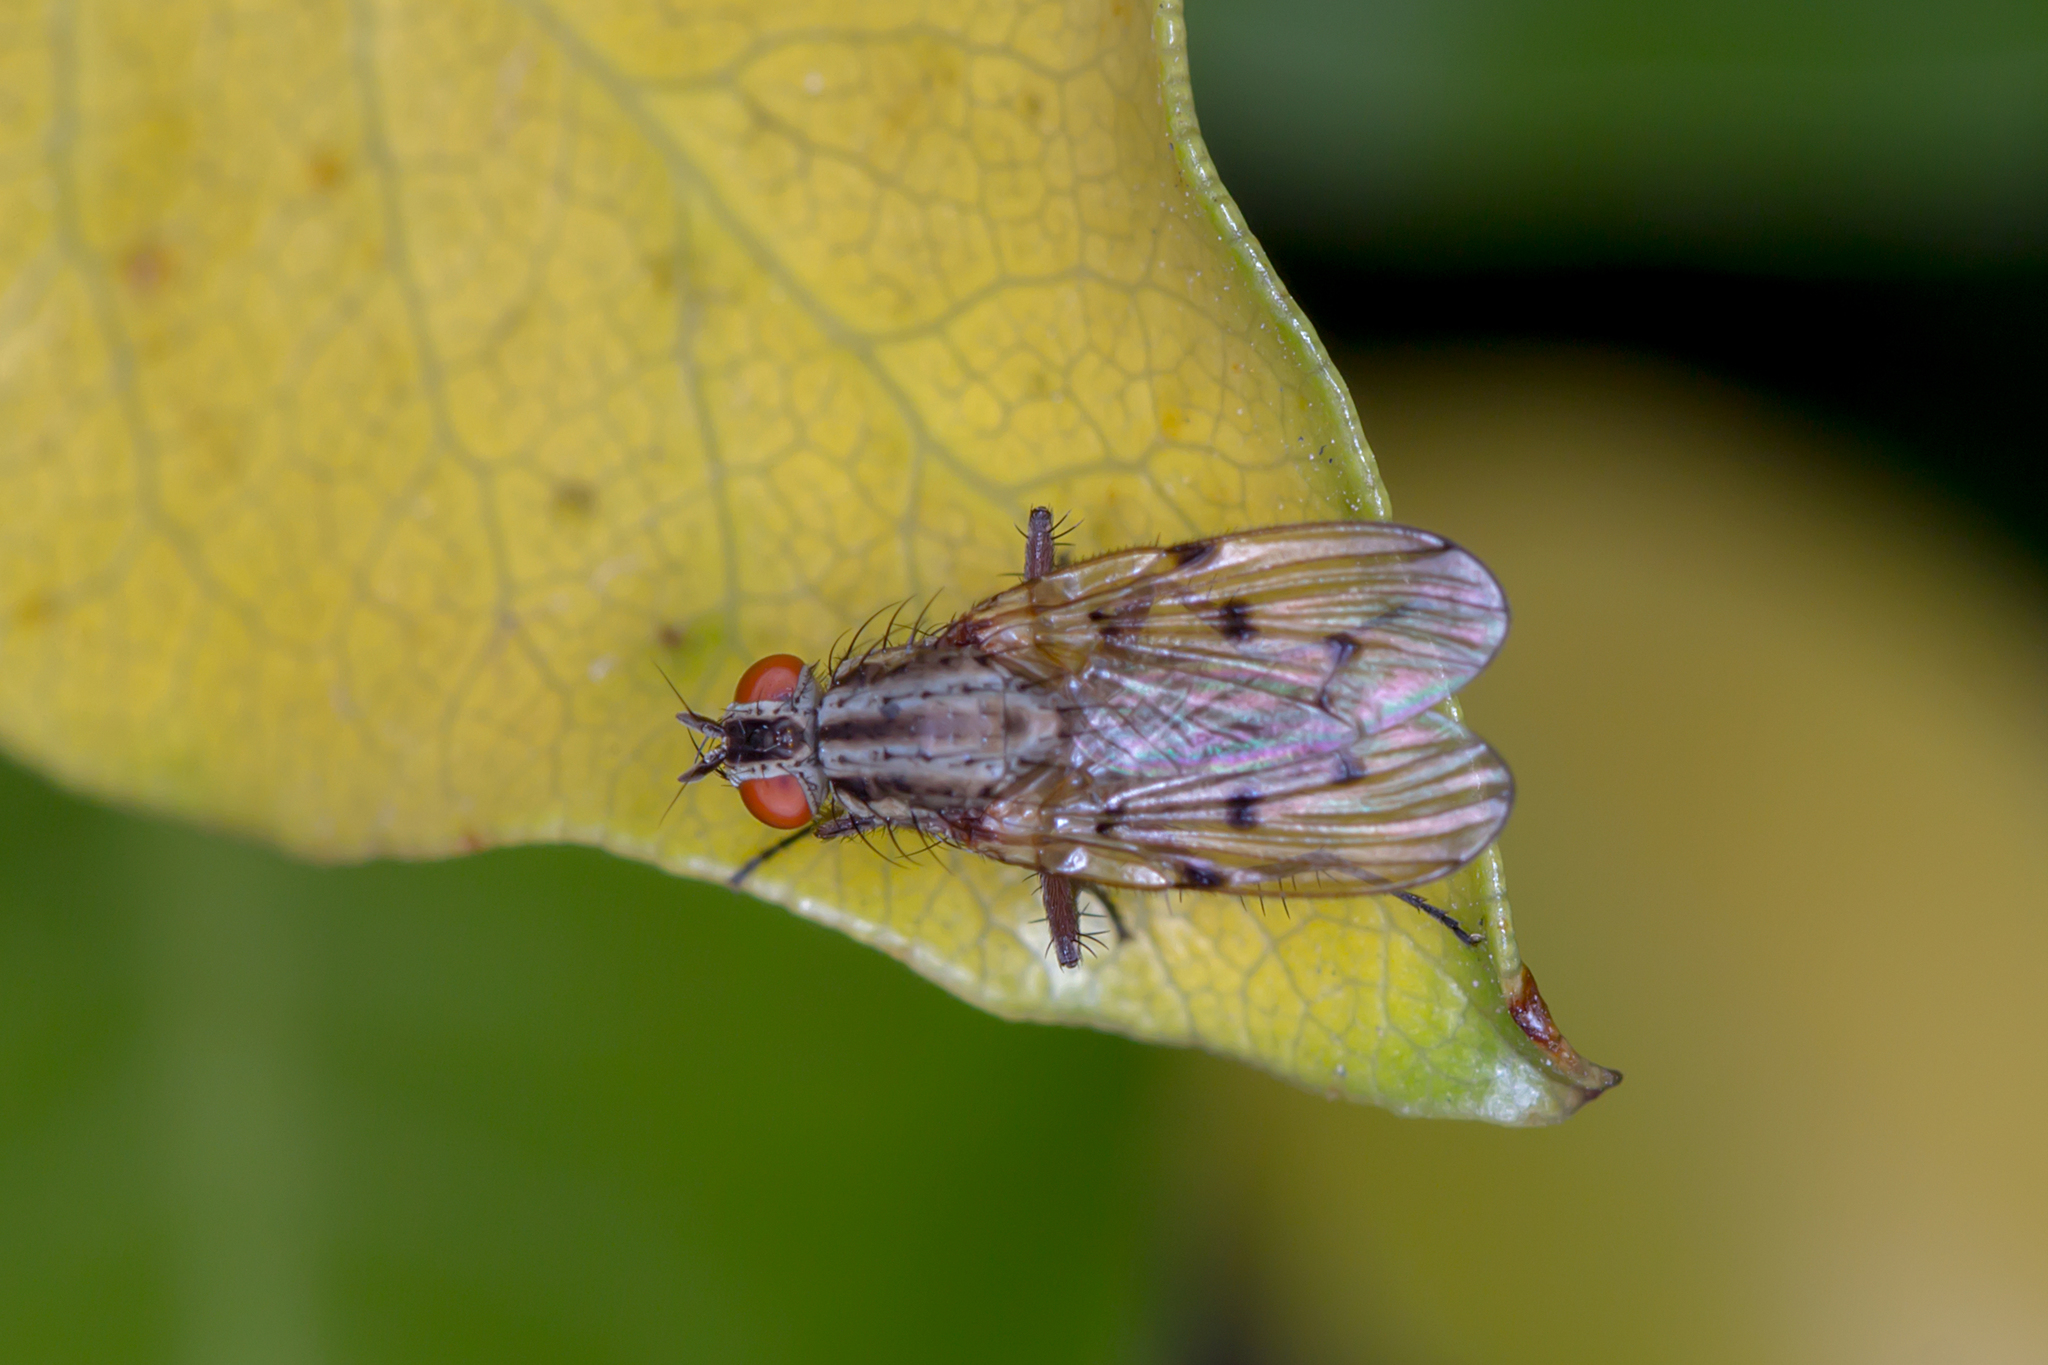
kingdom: Animalia
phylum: Arthropoda
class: Insecta
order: Diptera
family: Anthomyiidae
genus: Anthomyia
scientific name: Anthomyia punctipennis
